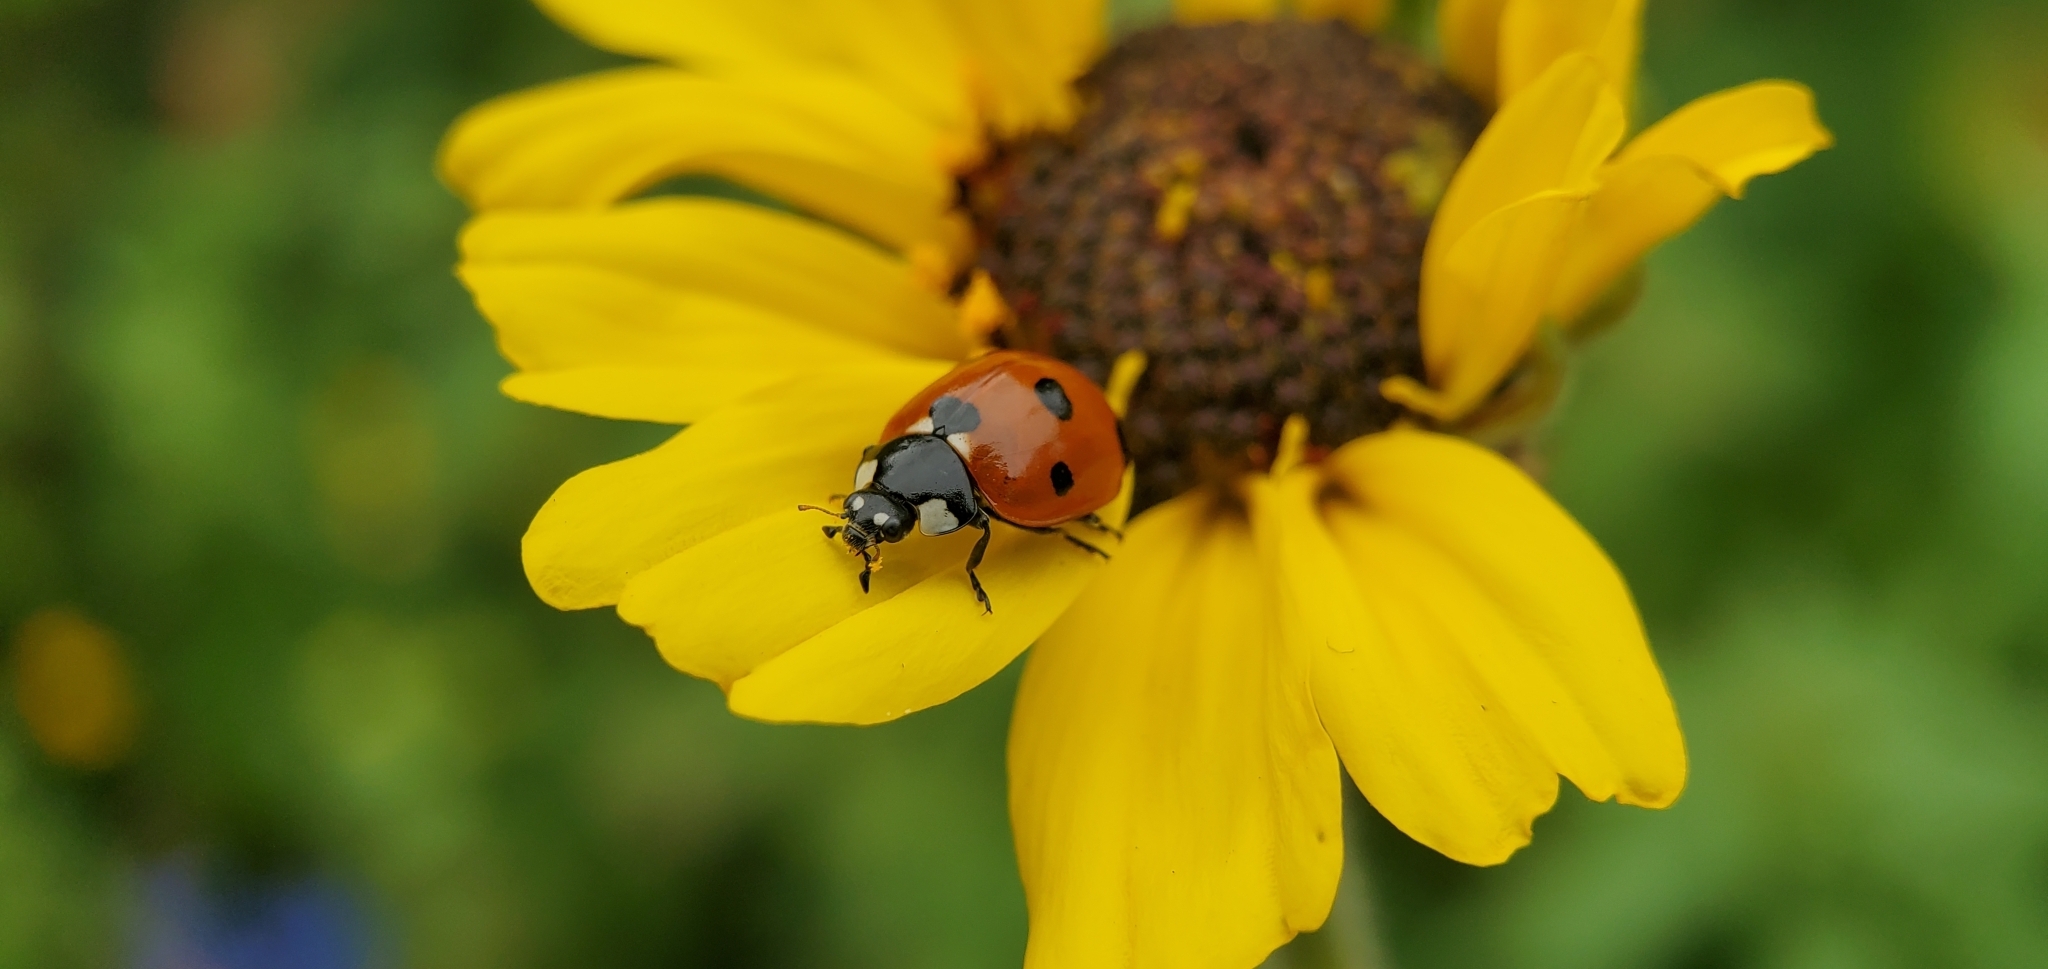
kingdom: Animalia
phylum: Arthropoda
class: Insecta
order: Coleoptera
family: Coccinellidae
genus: Coccinella
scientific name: Coccinella septempunctata
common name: Sevenspotted lady beetle
